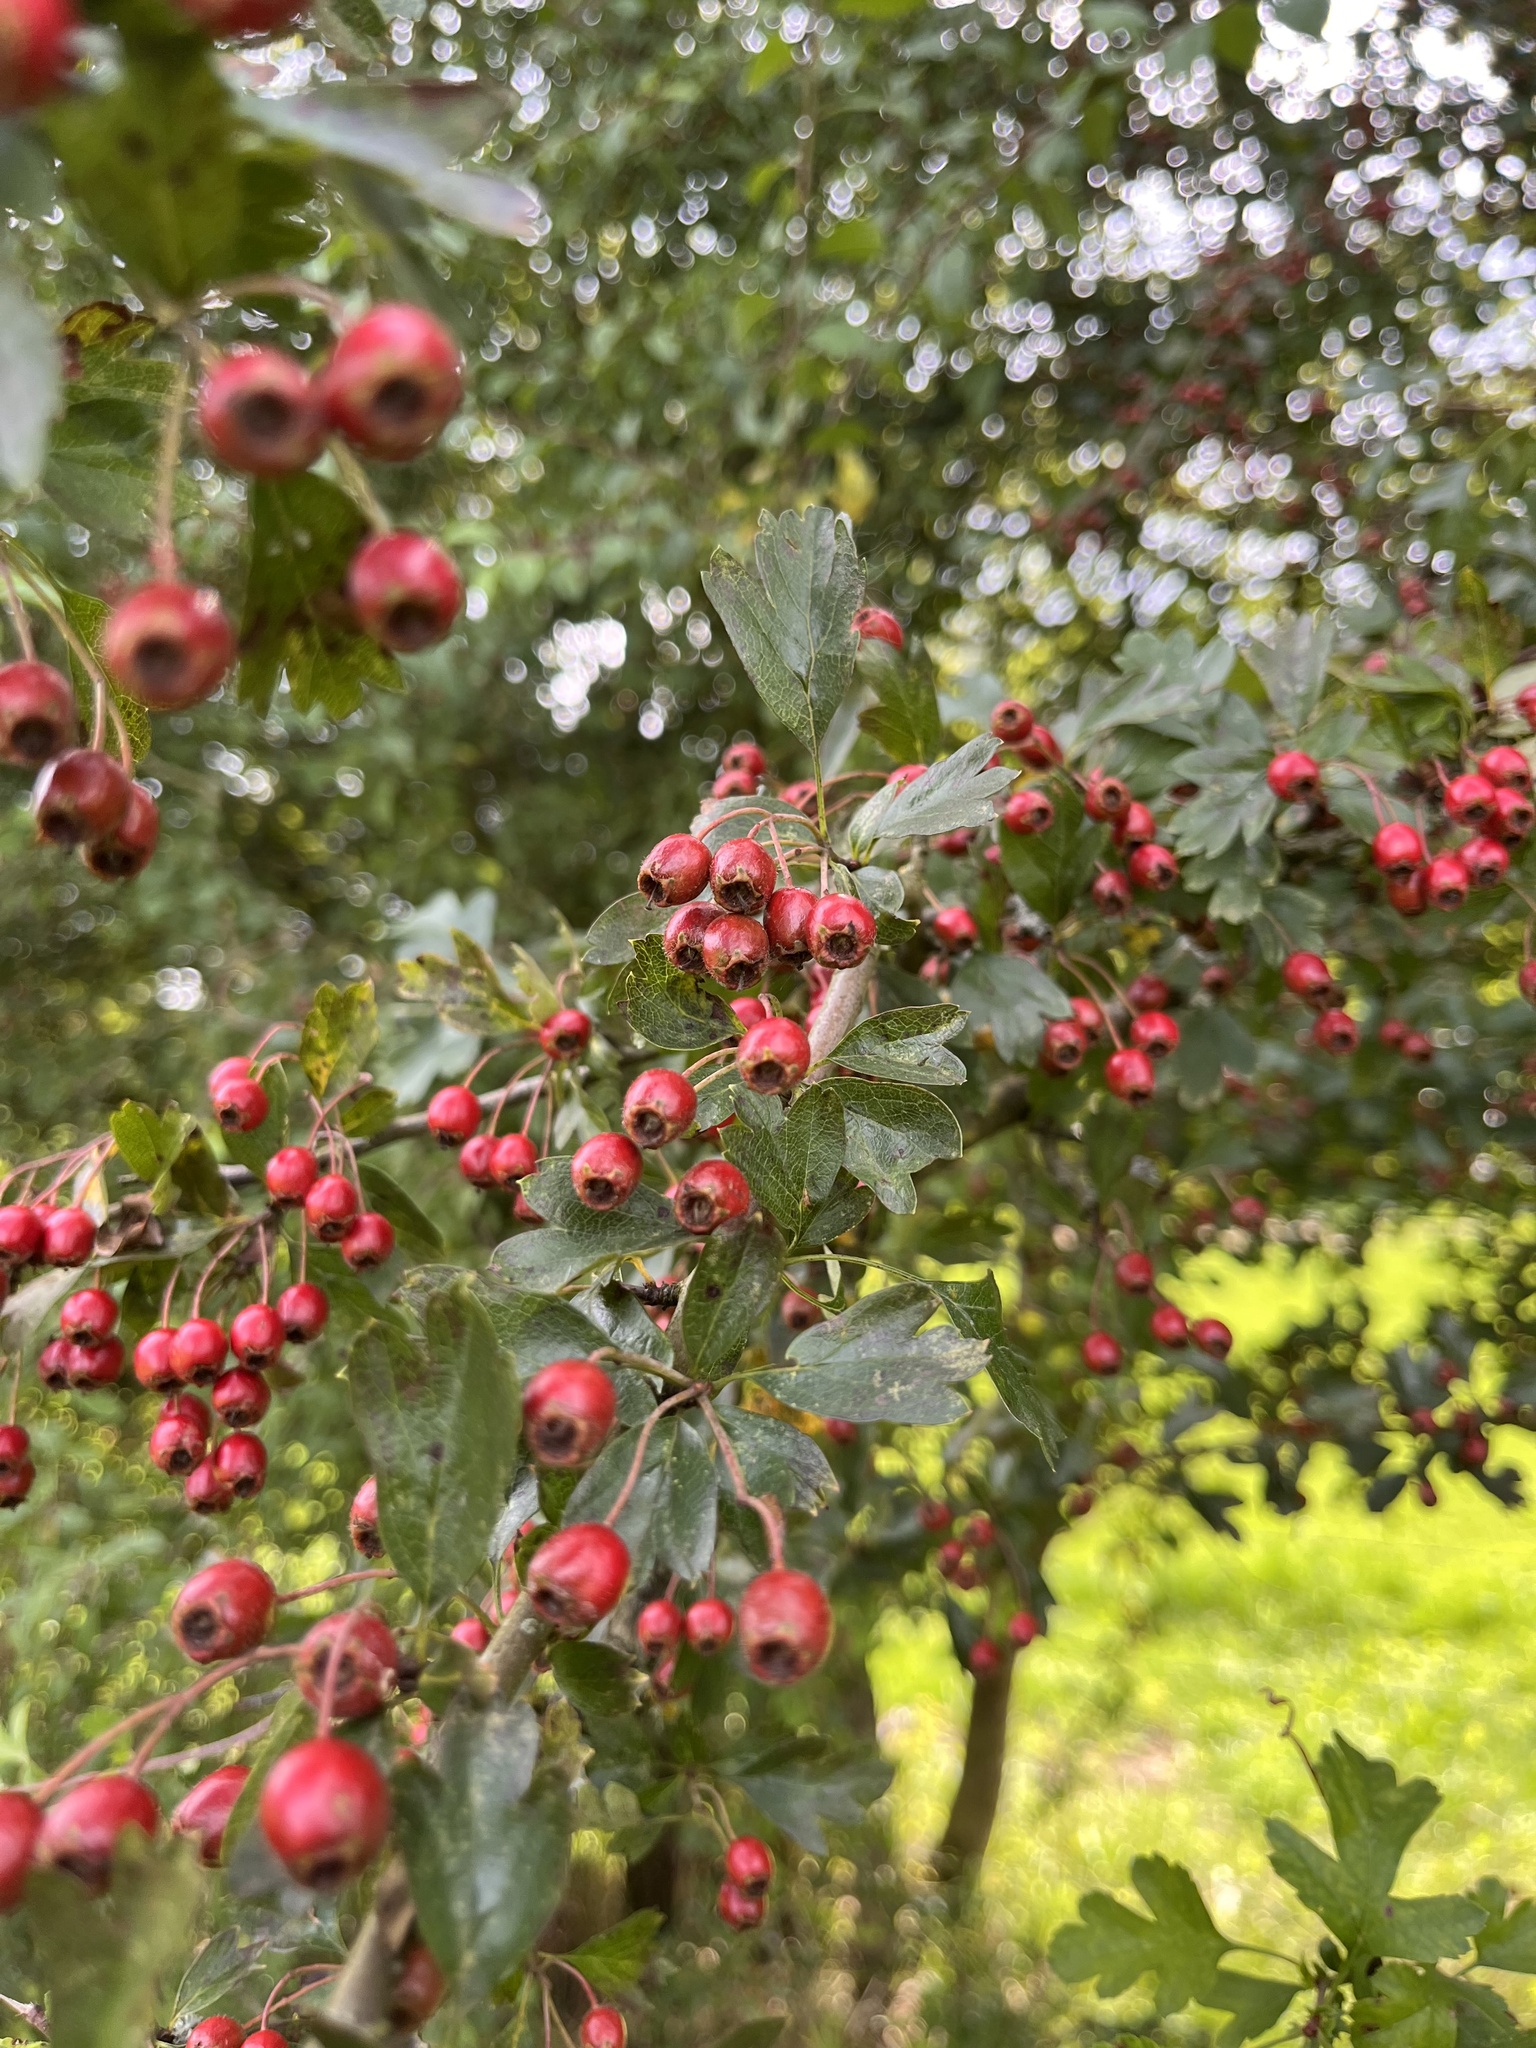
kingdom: Plantae
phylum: Tracheophyta
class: Magnoliopsida
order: Rosales
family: Rosaceae
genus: Crataegus
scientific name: Crataegus laevigata
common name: Midland hawthorn
